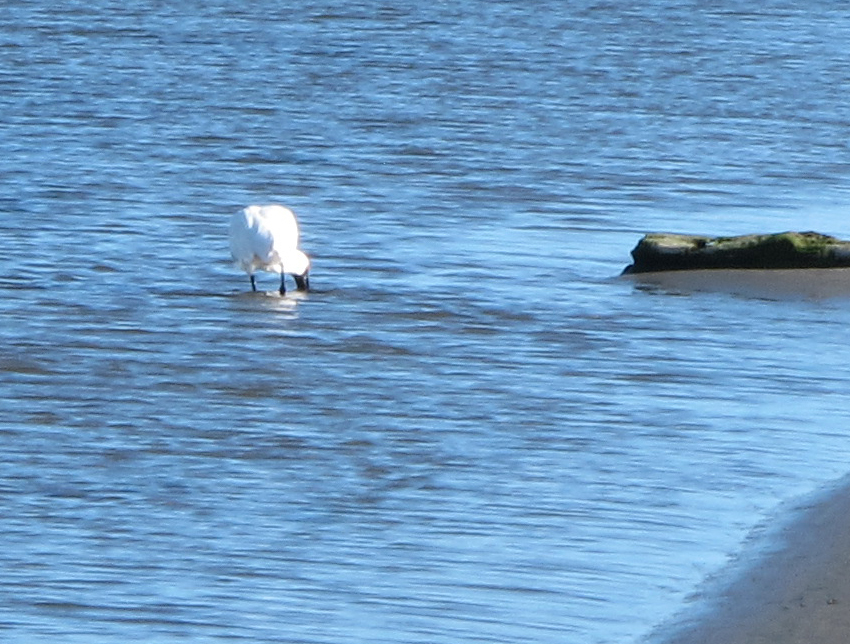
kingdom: Animalia
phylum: Chordata
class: Aves
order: Pelecaniformes
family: Threskiornithidae
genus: Platalea
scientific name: Platalea regia
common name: Royal spoonbill
